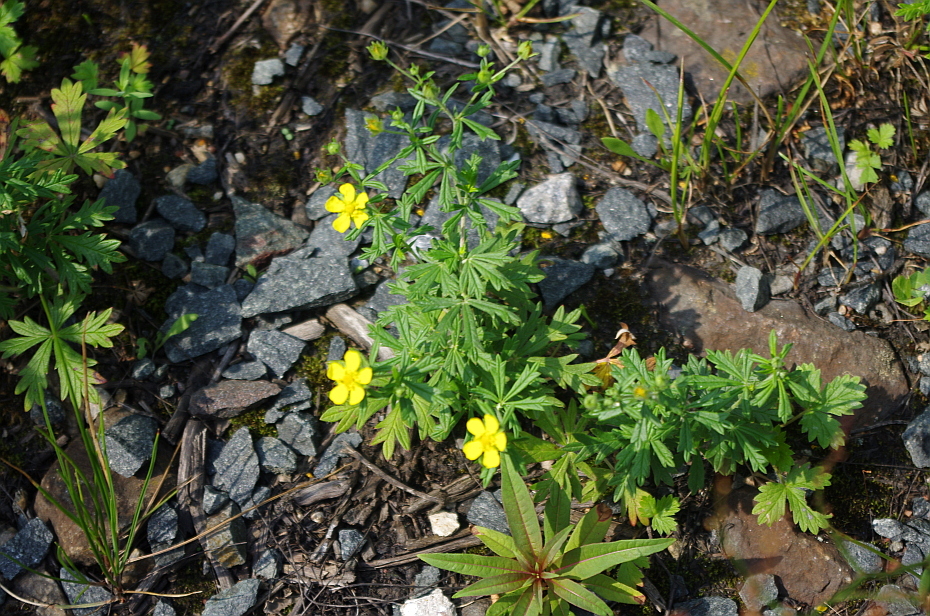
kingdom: Plantae
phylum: Tracheophyta
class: Magnoliopsida
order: Rosales
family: Rosaceae
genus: Potentilla
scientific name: Potentilla argentea
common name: Hoary cinquefoil
